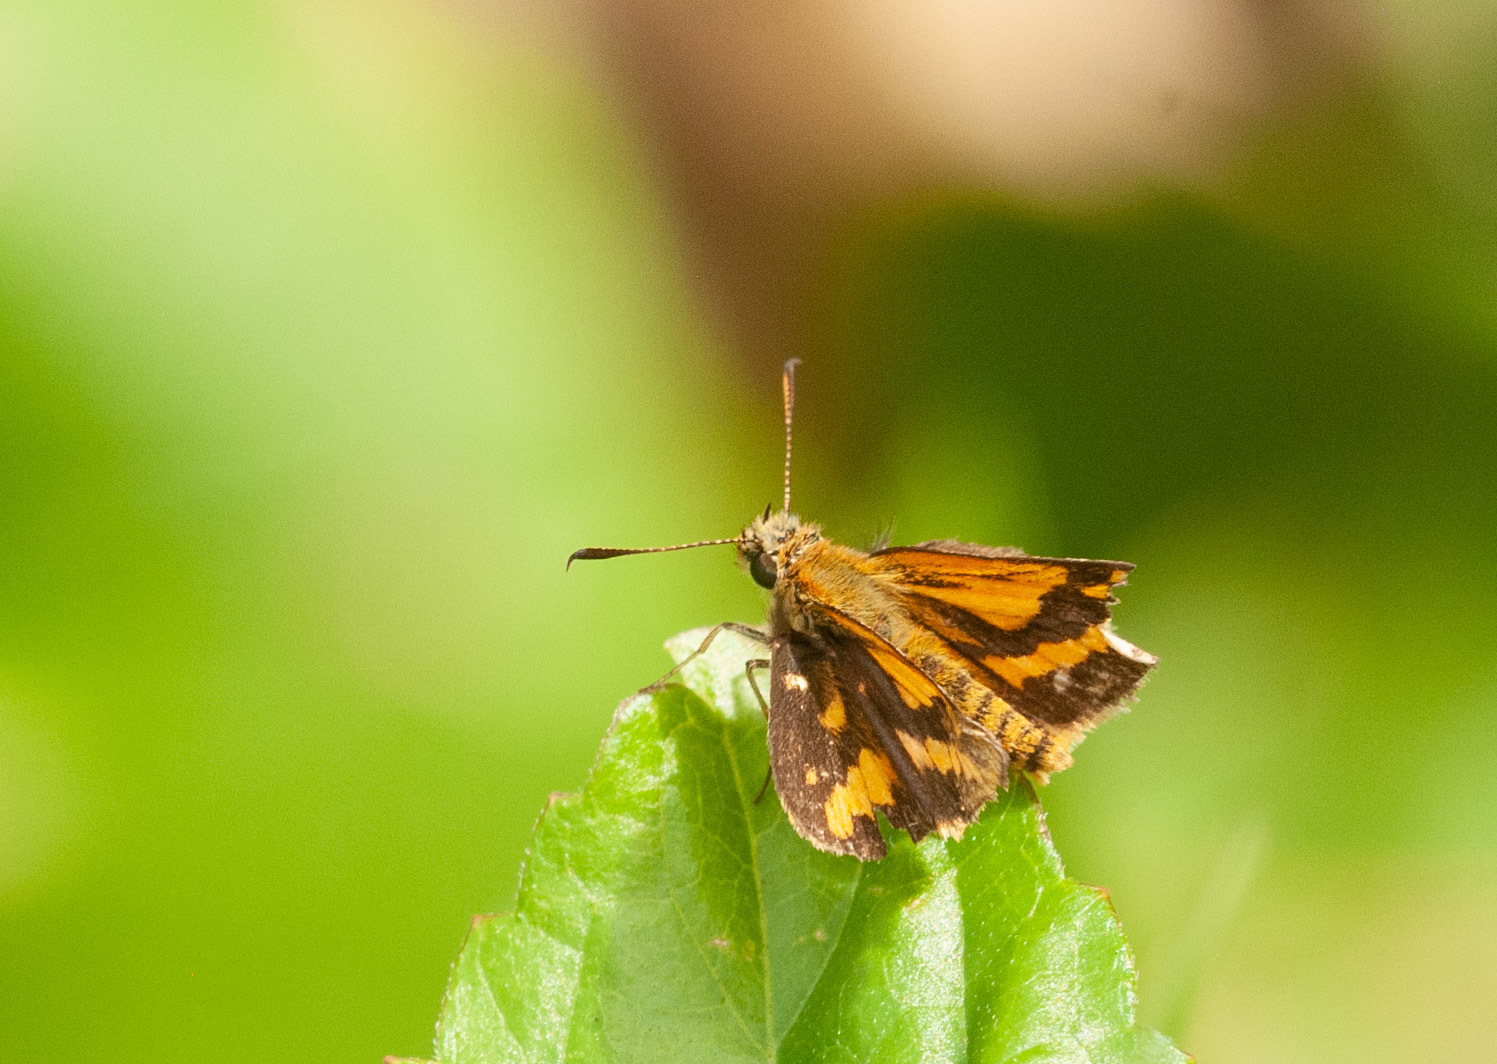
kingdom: Animalia
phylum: Arthropoda
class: Insecta
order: Lepidoptera
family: Hesperiidae
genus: Suniana
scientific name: Suniana sunias
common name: Wide-brand grass-dart
